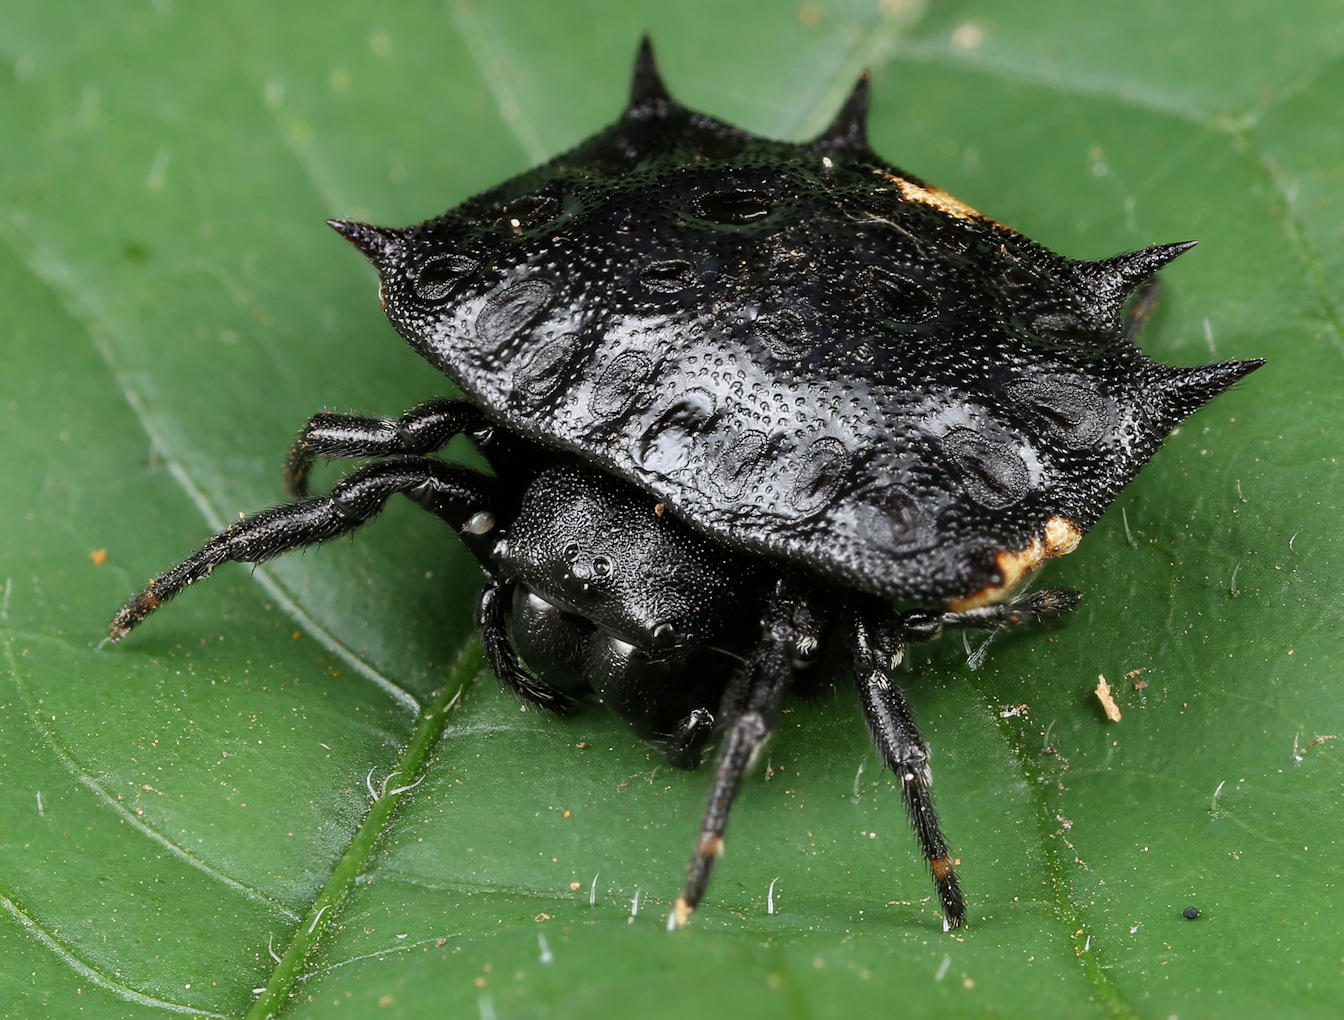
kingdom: Animalia
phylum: Arthropoda
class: Arachnida
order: Araneae
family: Araneidae
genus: Isoxya
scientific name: Isoxya tabulata
